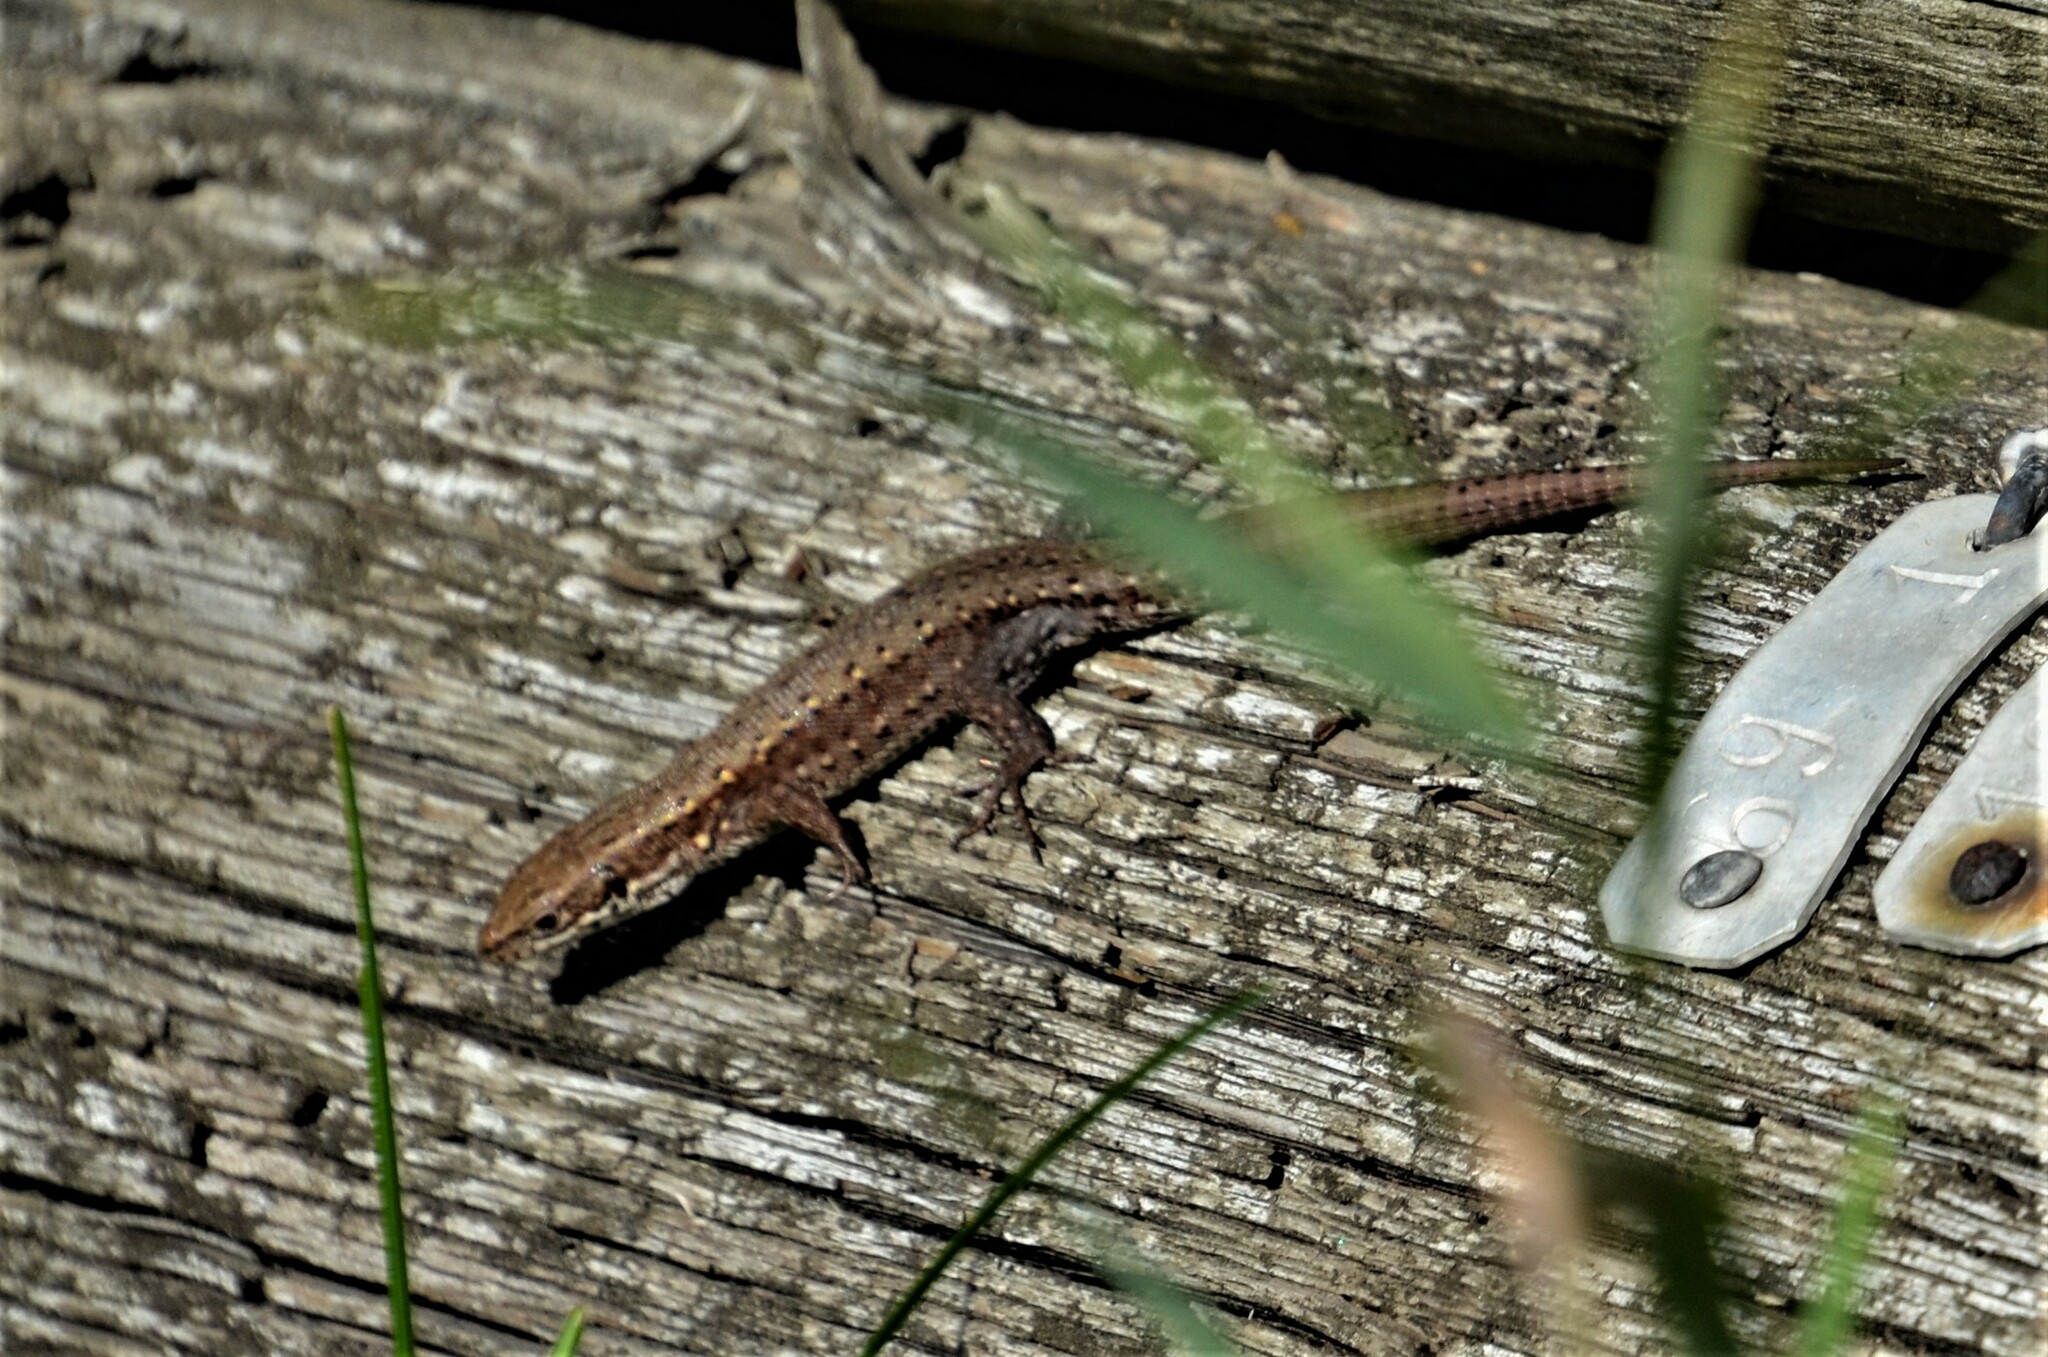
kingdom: Animalia
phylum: Chordata
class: Squamata
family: Lacertidae
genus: Zootoca
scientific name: Zootoca vivipara
